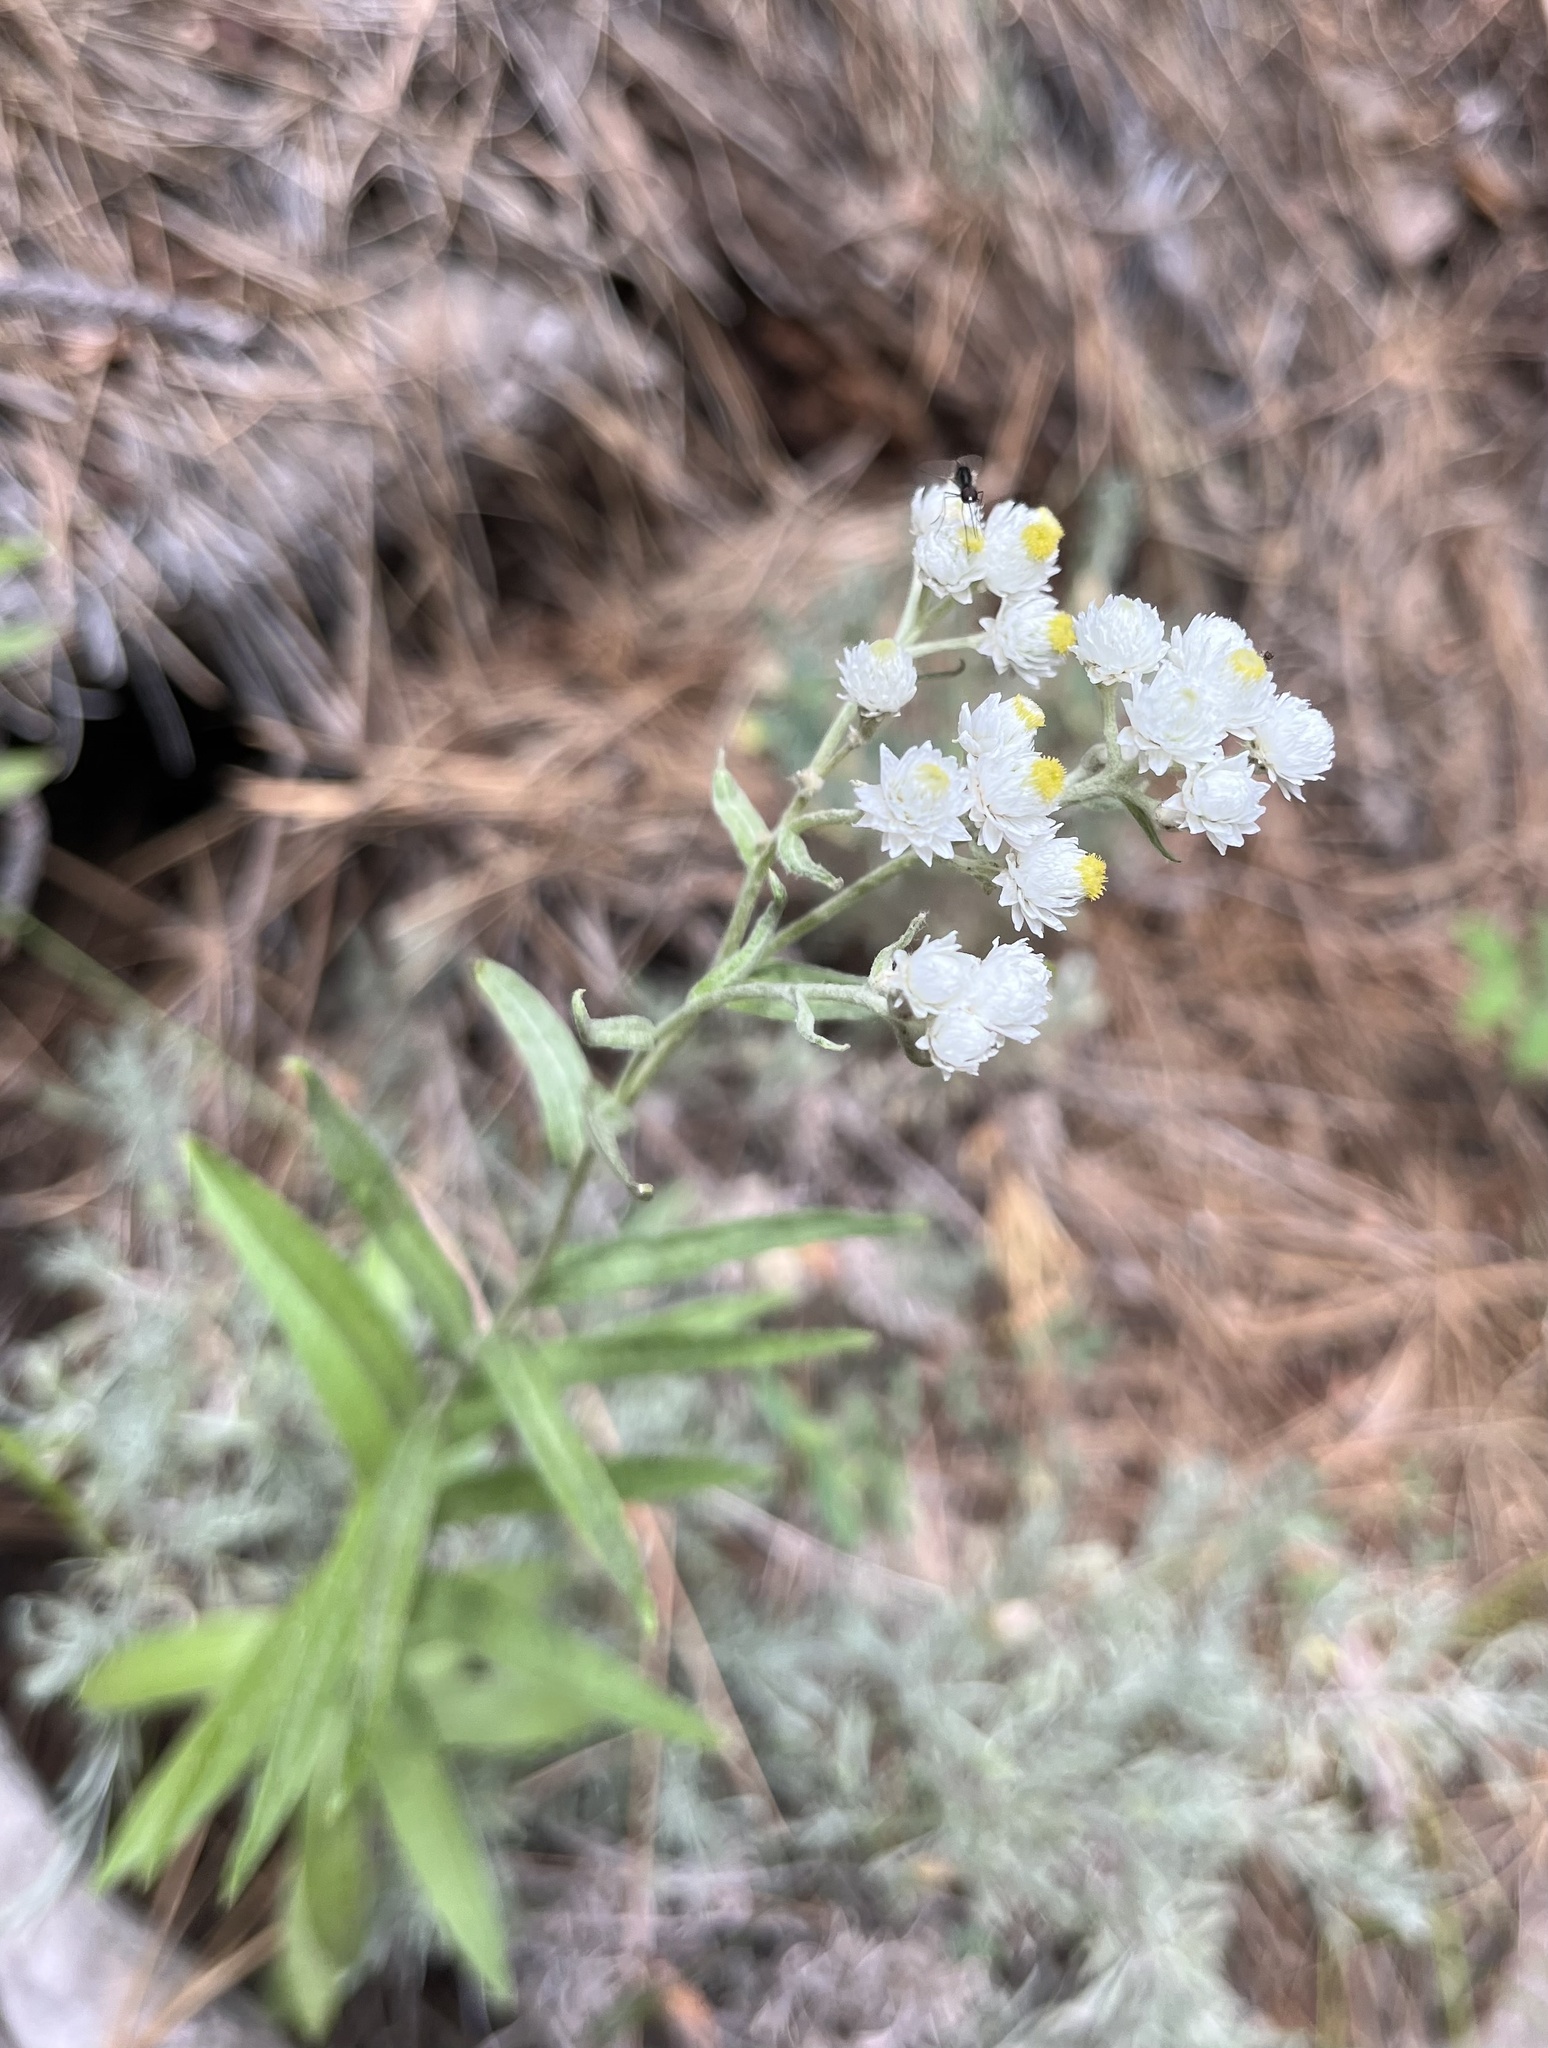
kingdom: Plantae
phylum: Tracheophyta
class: Magnoliopsida
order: Asterales
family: Asteraceae
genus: Anaphalis
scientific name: Anaphalis margaritacea
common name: Pearly everlasting
